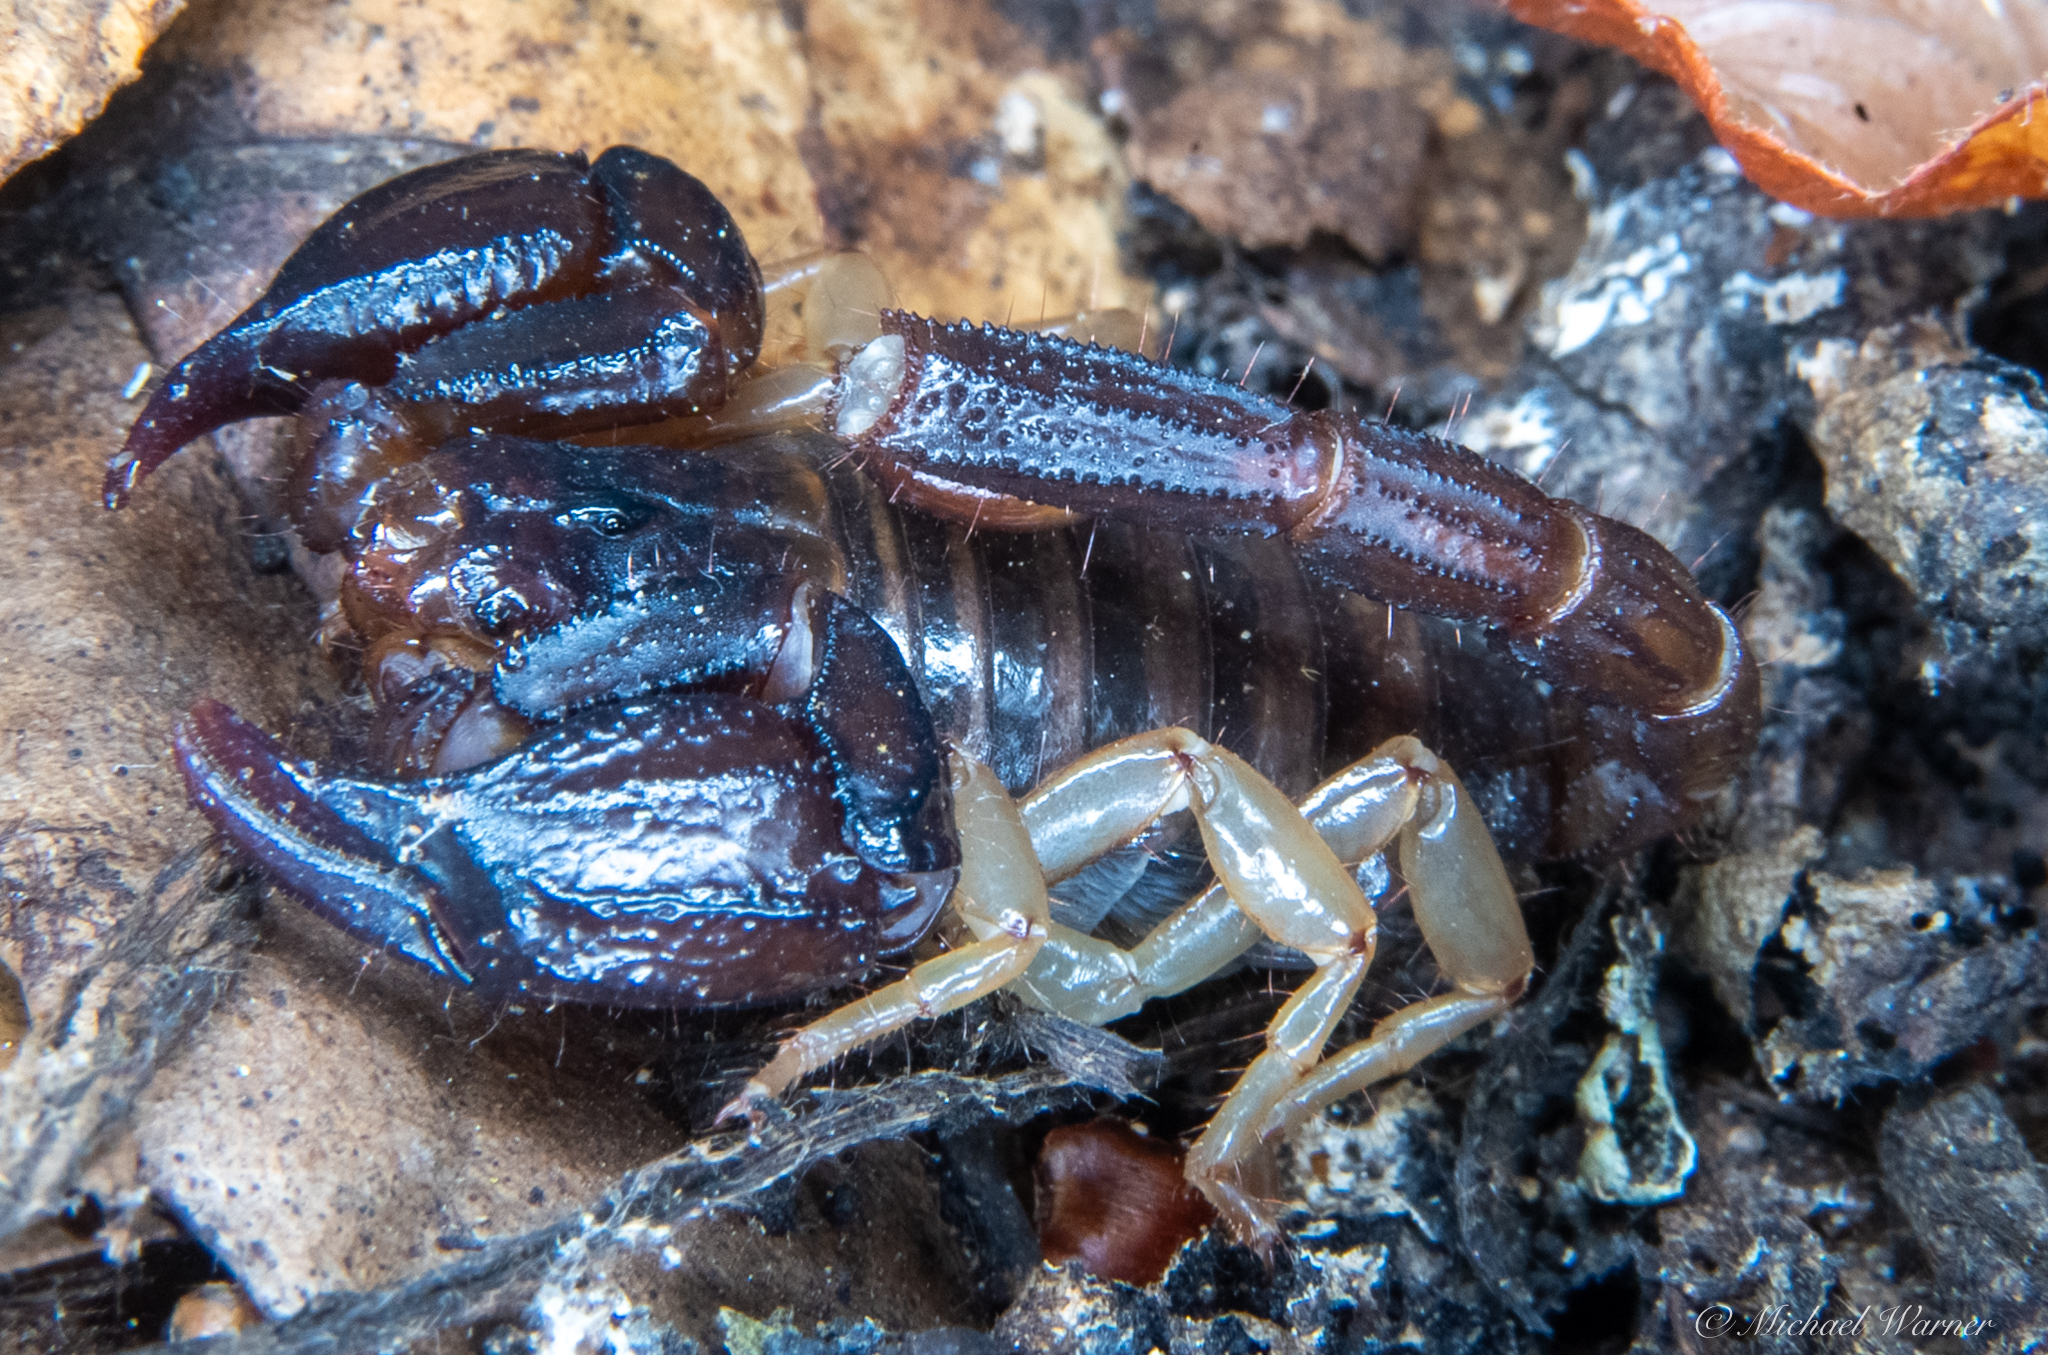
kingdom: Animalia
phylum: Arthropoda
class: Arachnida
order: Scorpiones
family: Chactidae
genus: Uroctonus
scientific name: Uroctonus mordax
